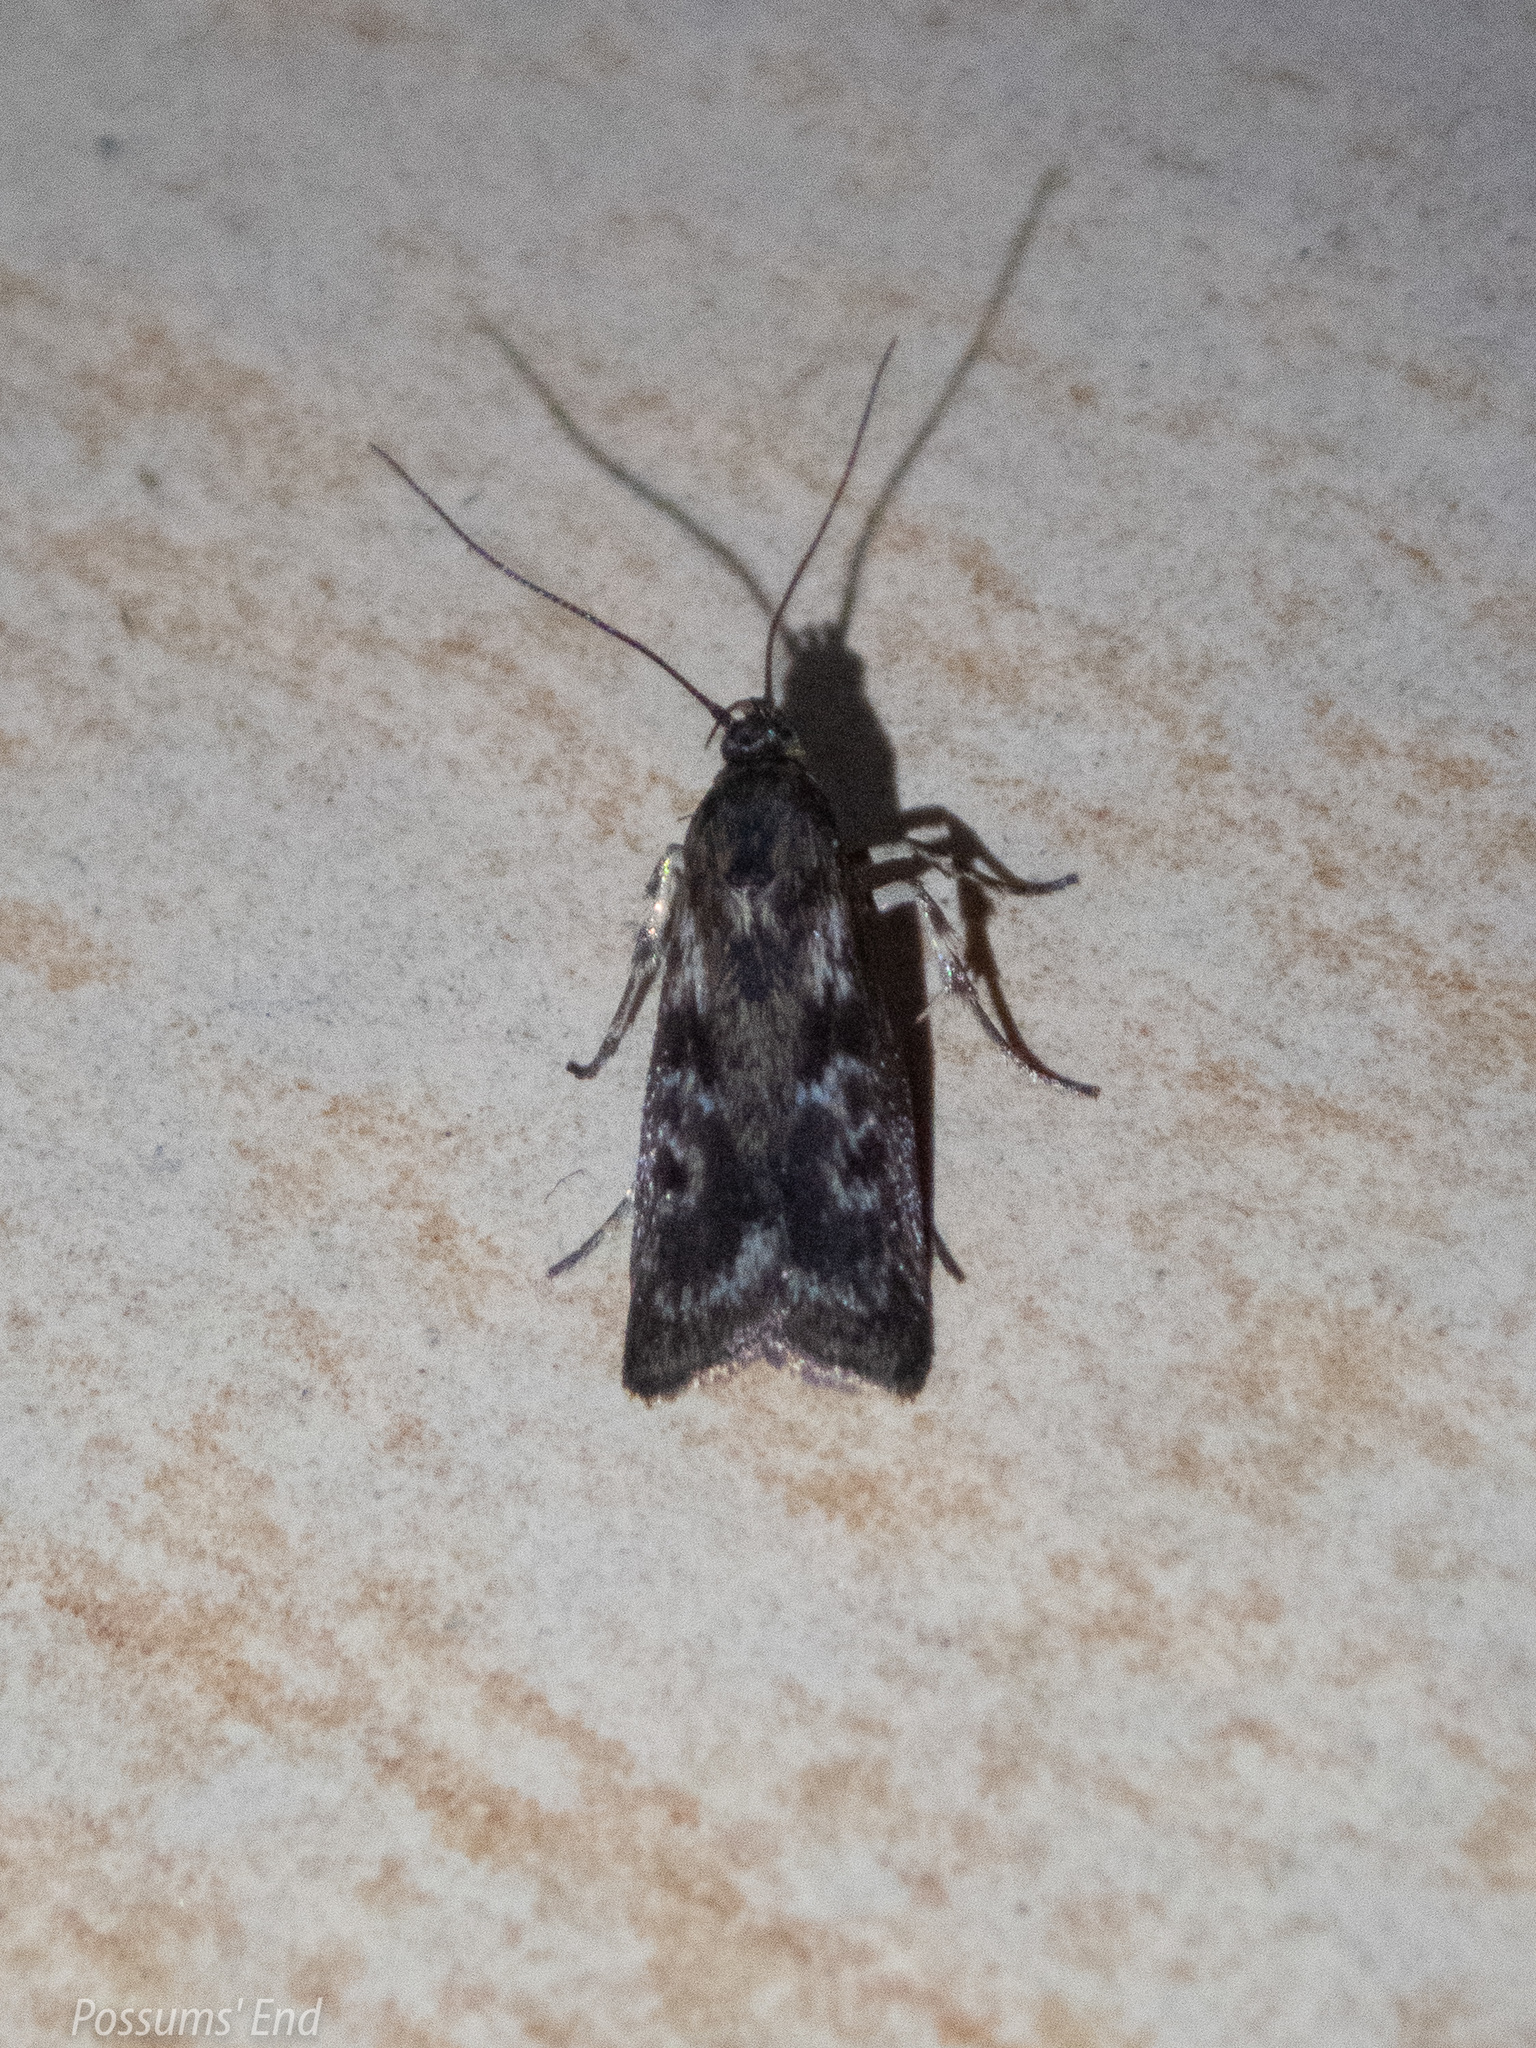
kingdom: Animalia
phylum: Arthropoda
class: Insecta
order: Lepidoptera
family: Oecophoridae
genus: Hierodoris
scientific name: Hierodoris atychioides
